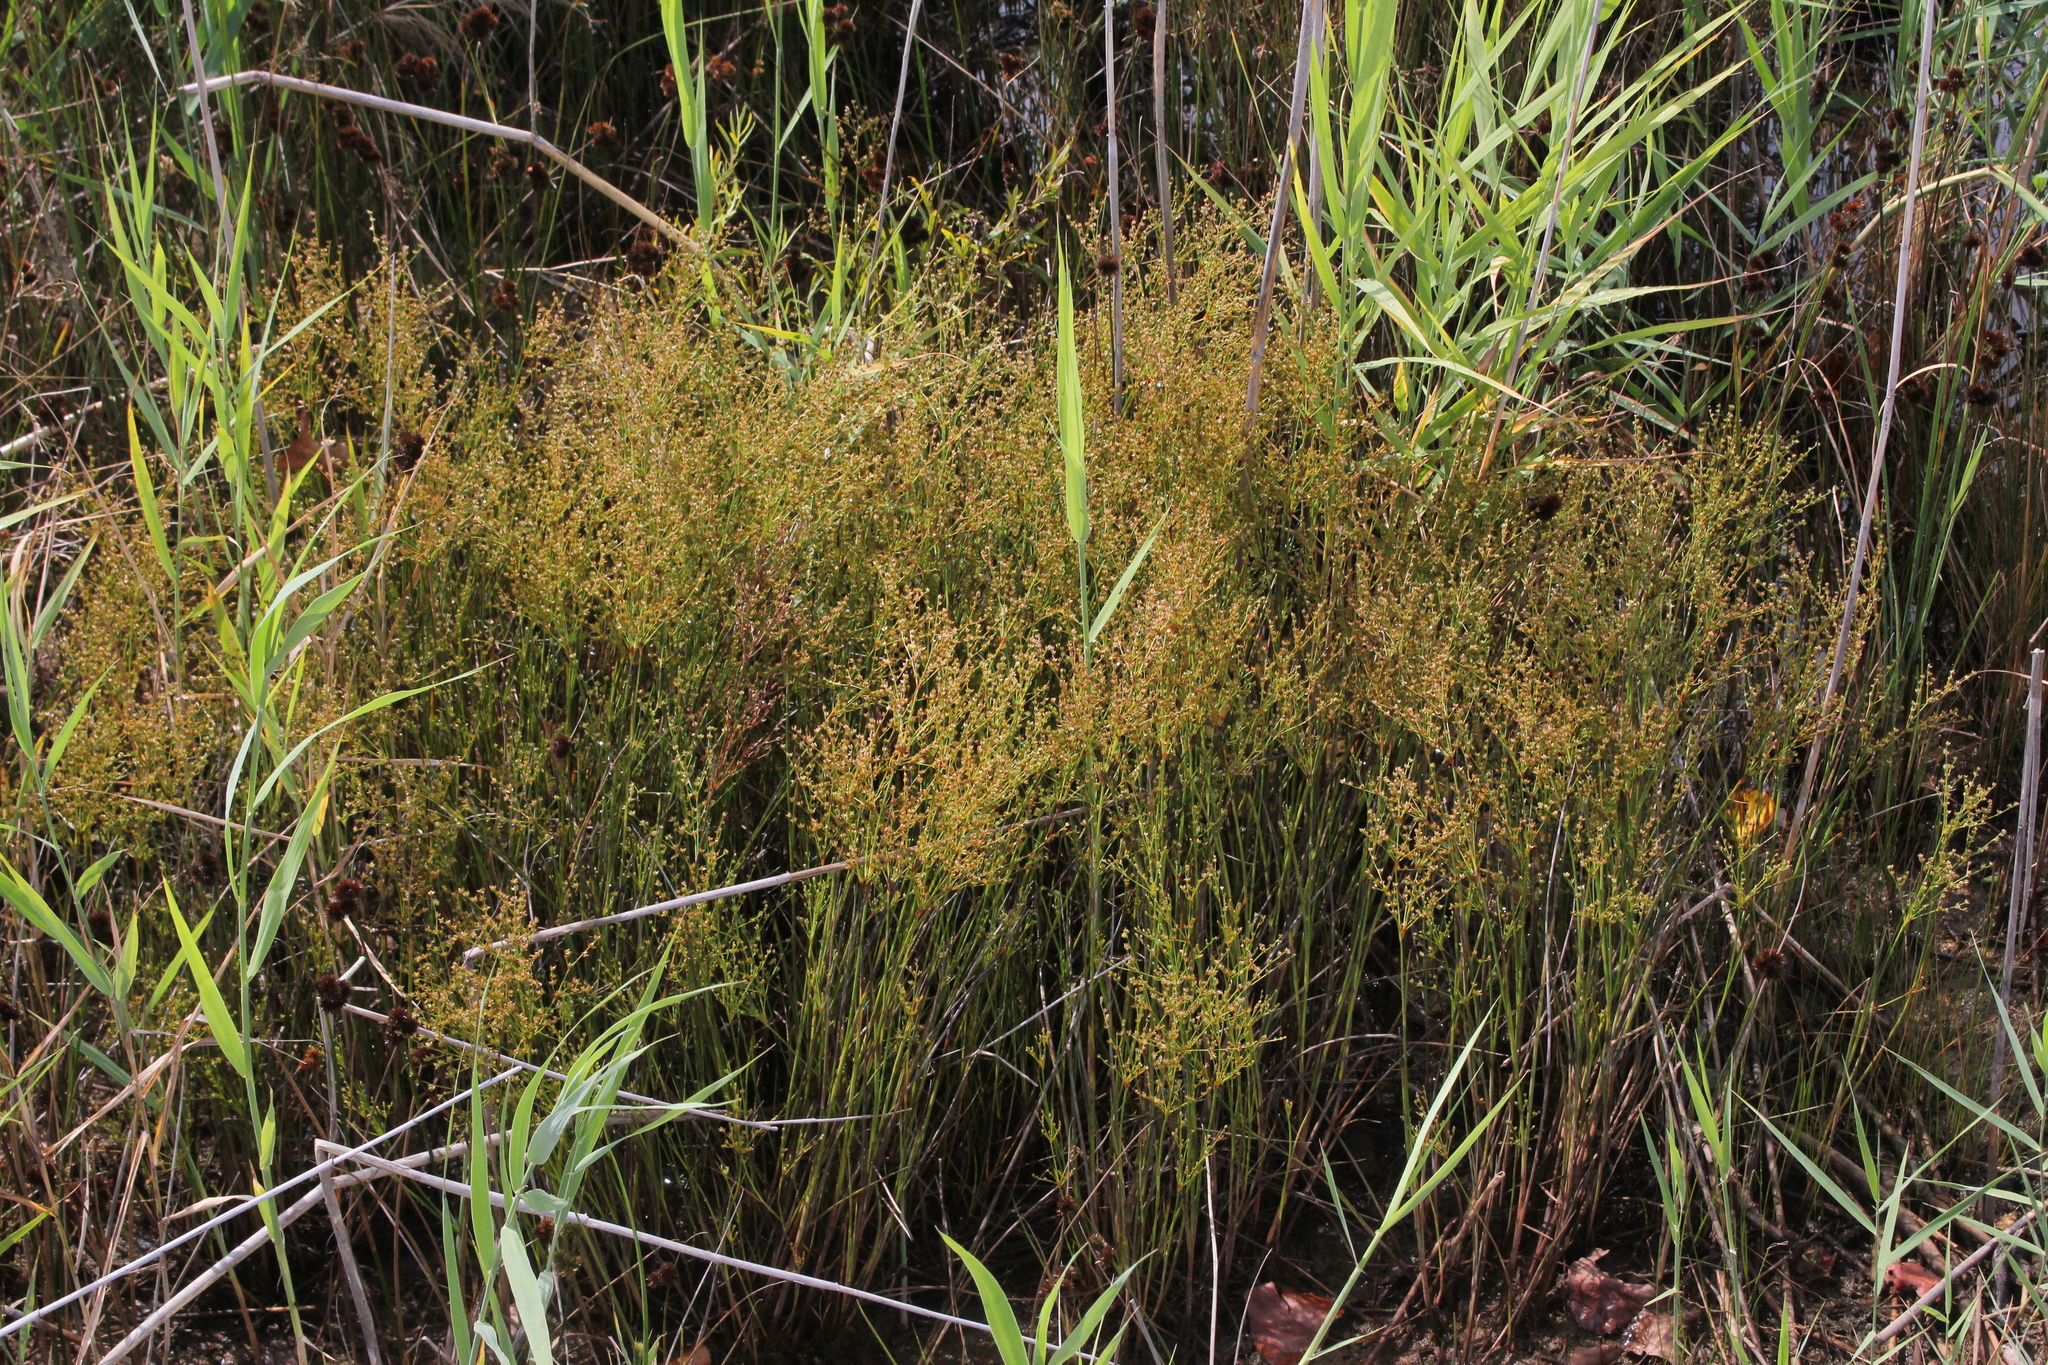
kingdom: Plantae
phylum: Tracheophyta
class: Liliopsida
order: Poales
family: Juncaceae
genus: Juncus
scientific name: Juncus brachycephalus
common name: Short-headed rush
